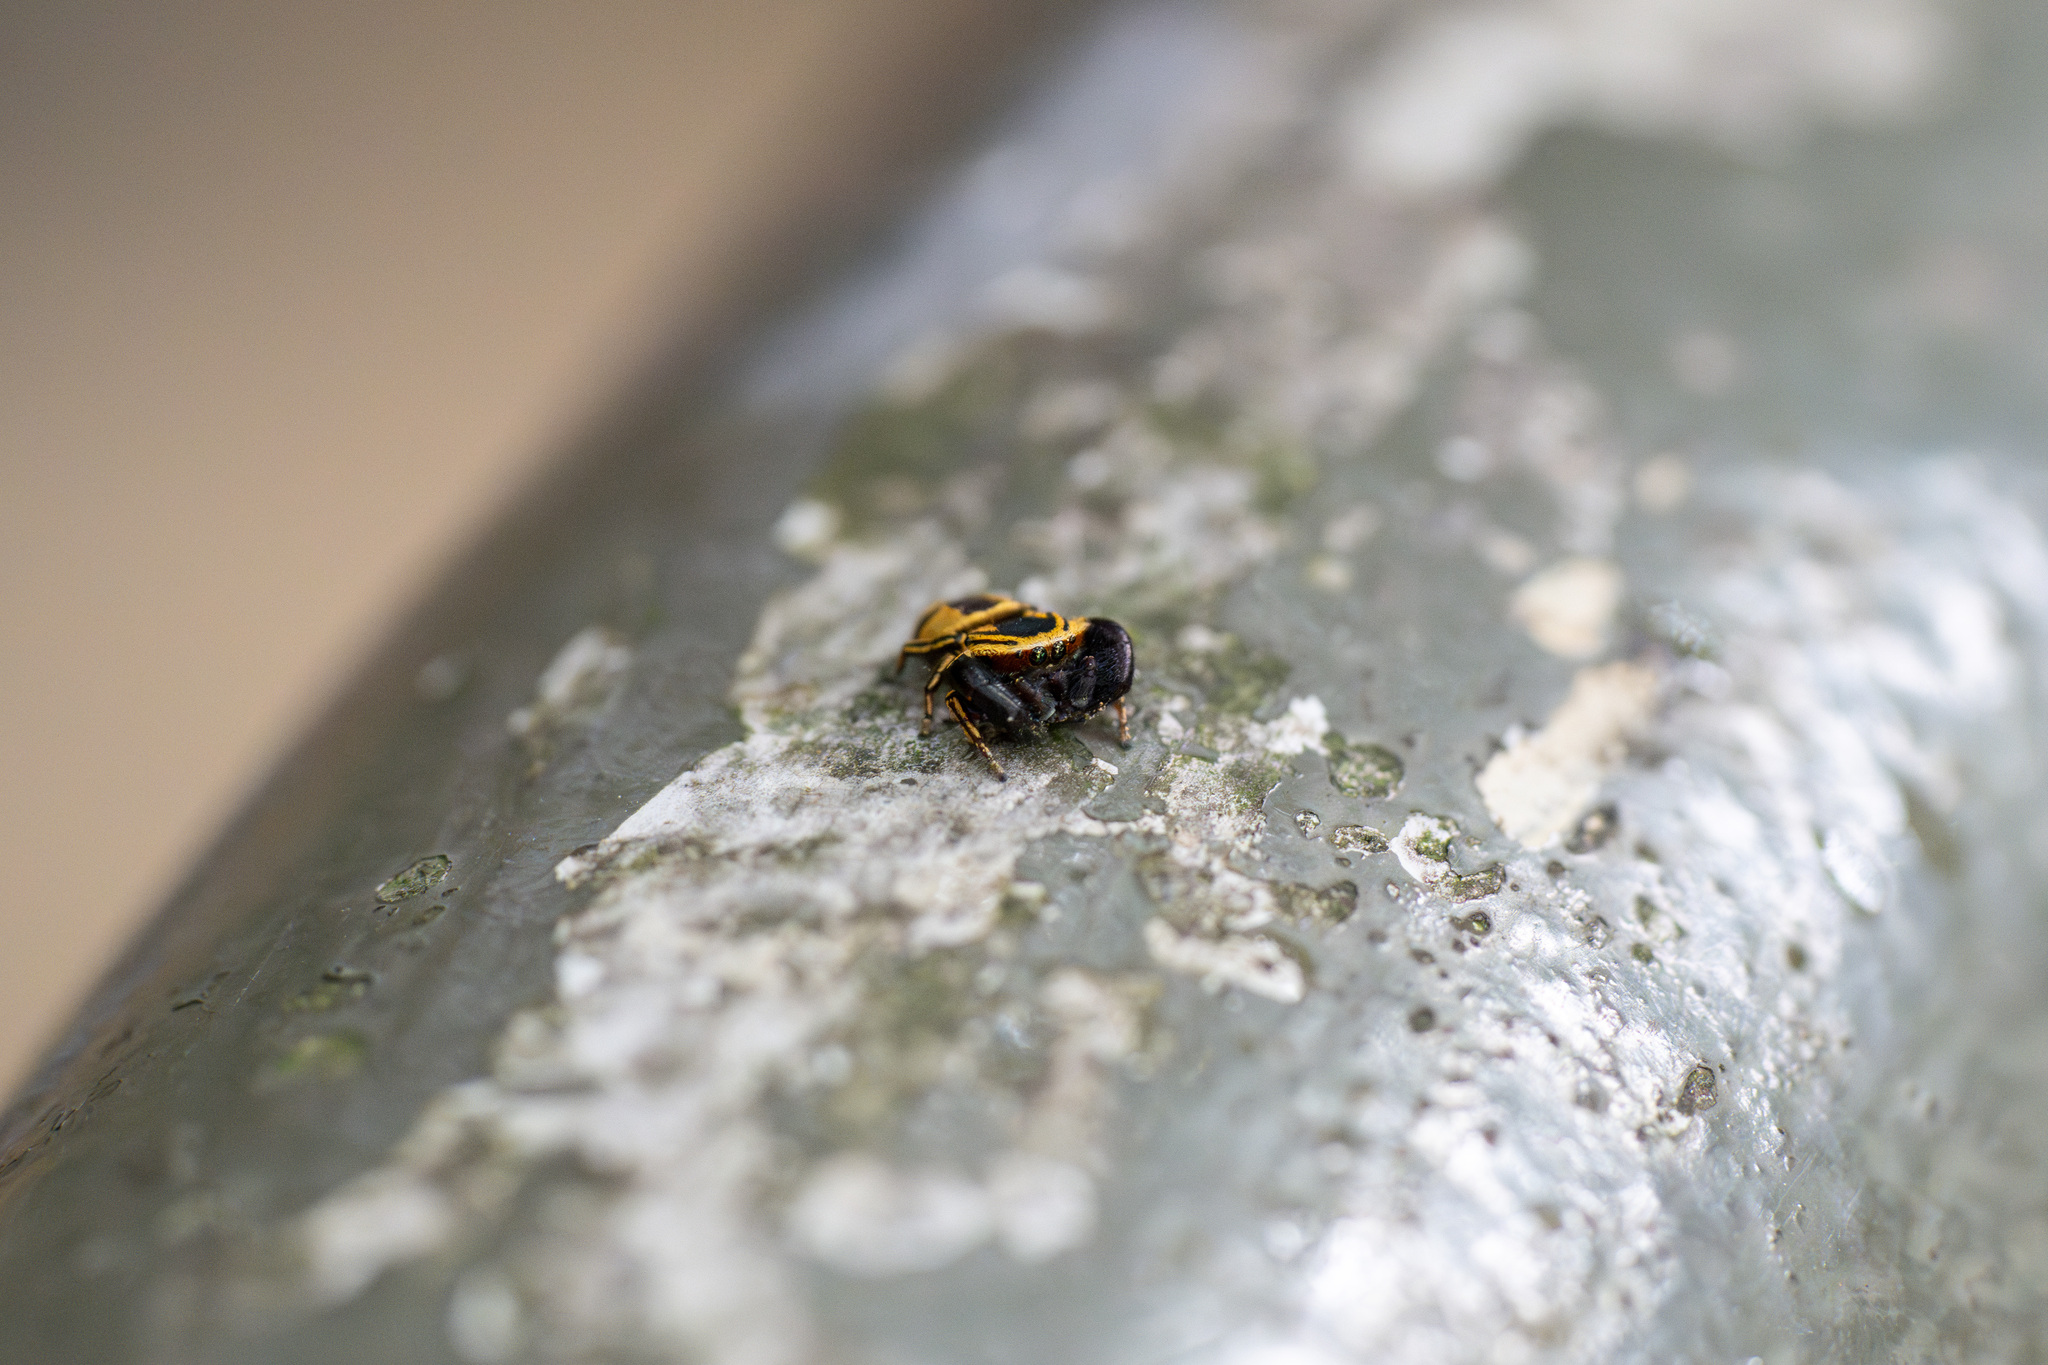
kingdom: Animalia
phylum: Arthropoda
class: Arachnida
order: Araneae
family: Salticidae
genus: Rhene
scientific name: Rhene flavicomans
